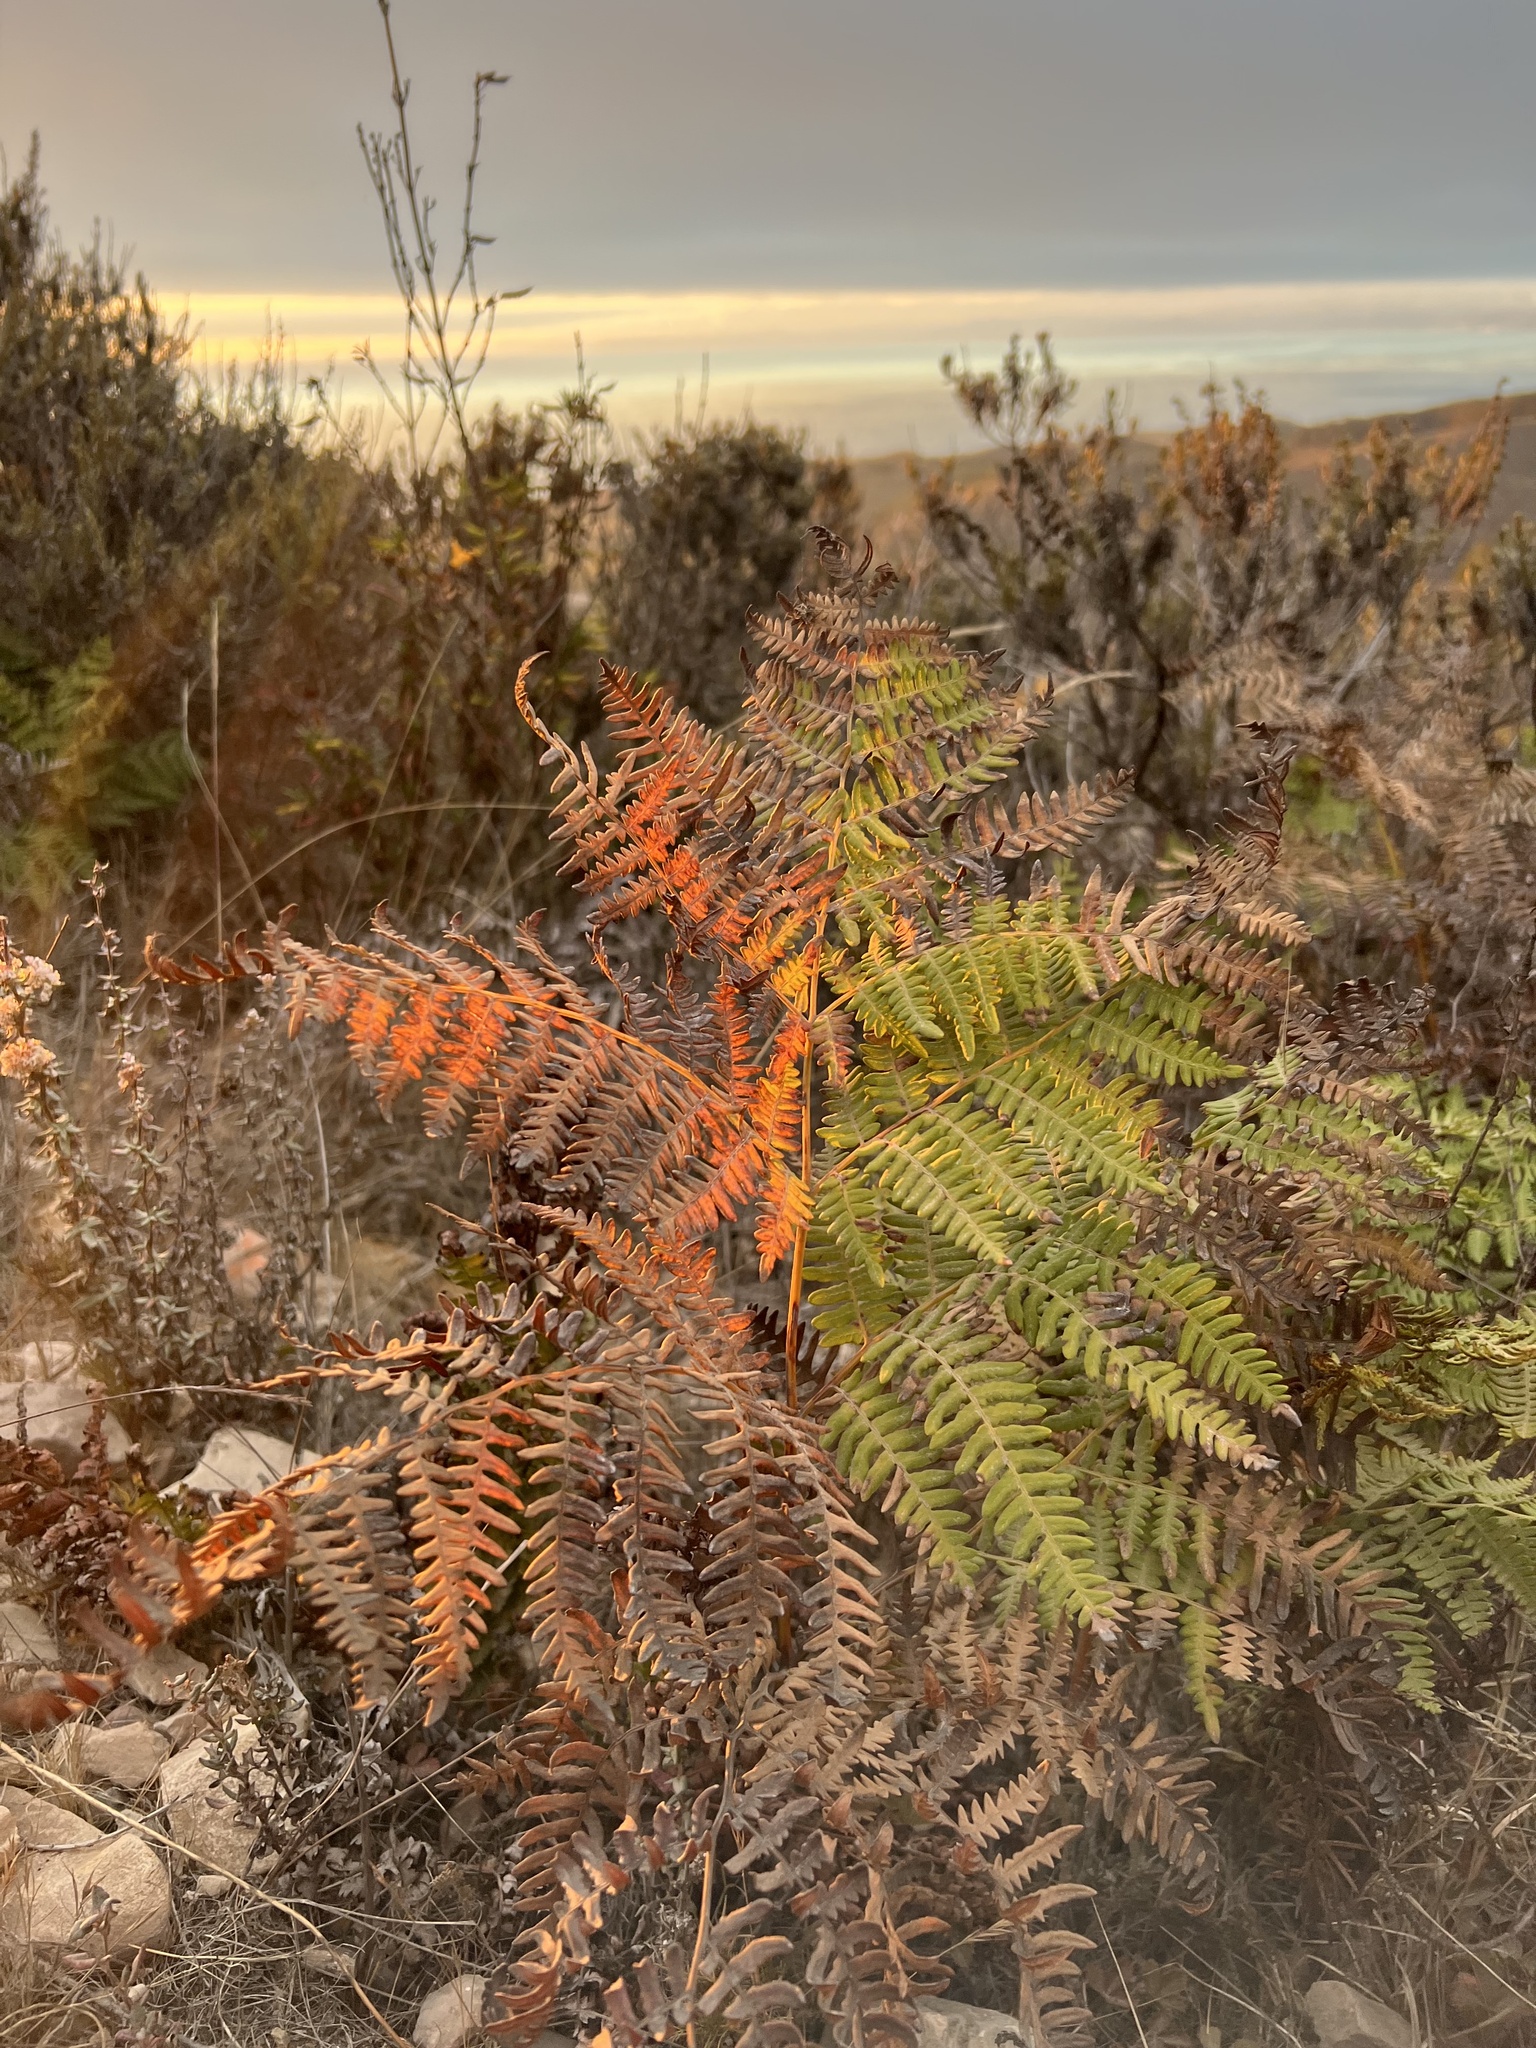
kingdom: Plantae
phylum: Tracheophyta
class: Polypodiopsida
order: Polypodiales
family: Dennstaedtiaceae
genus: Pteridium
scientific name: Pteridium aquilinum
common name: Bracken
